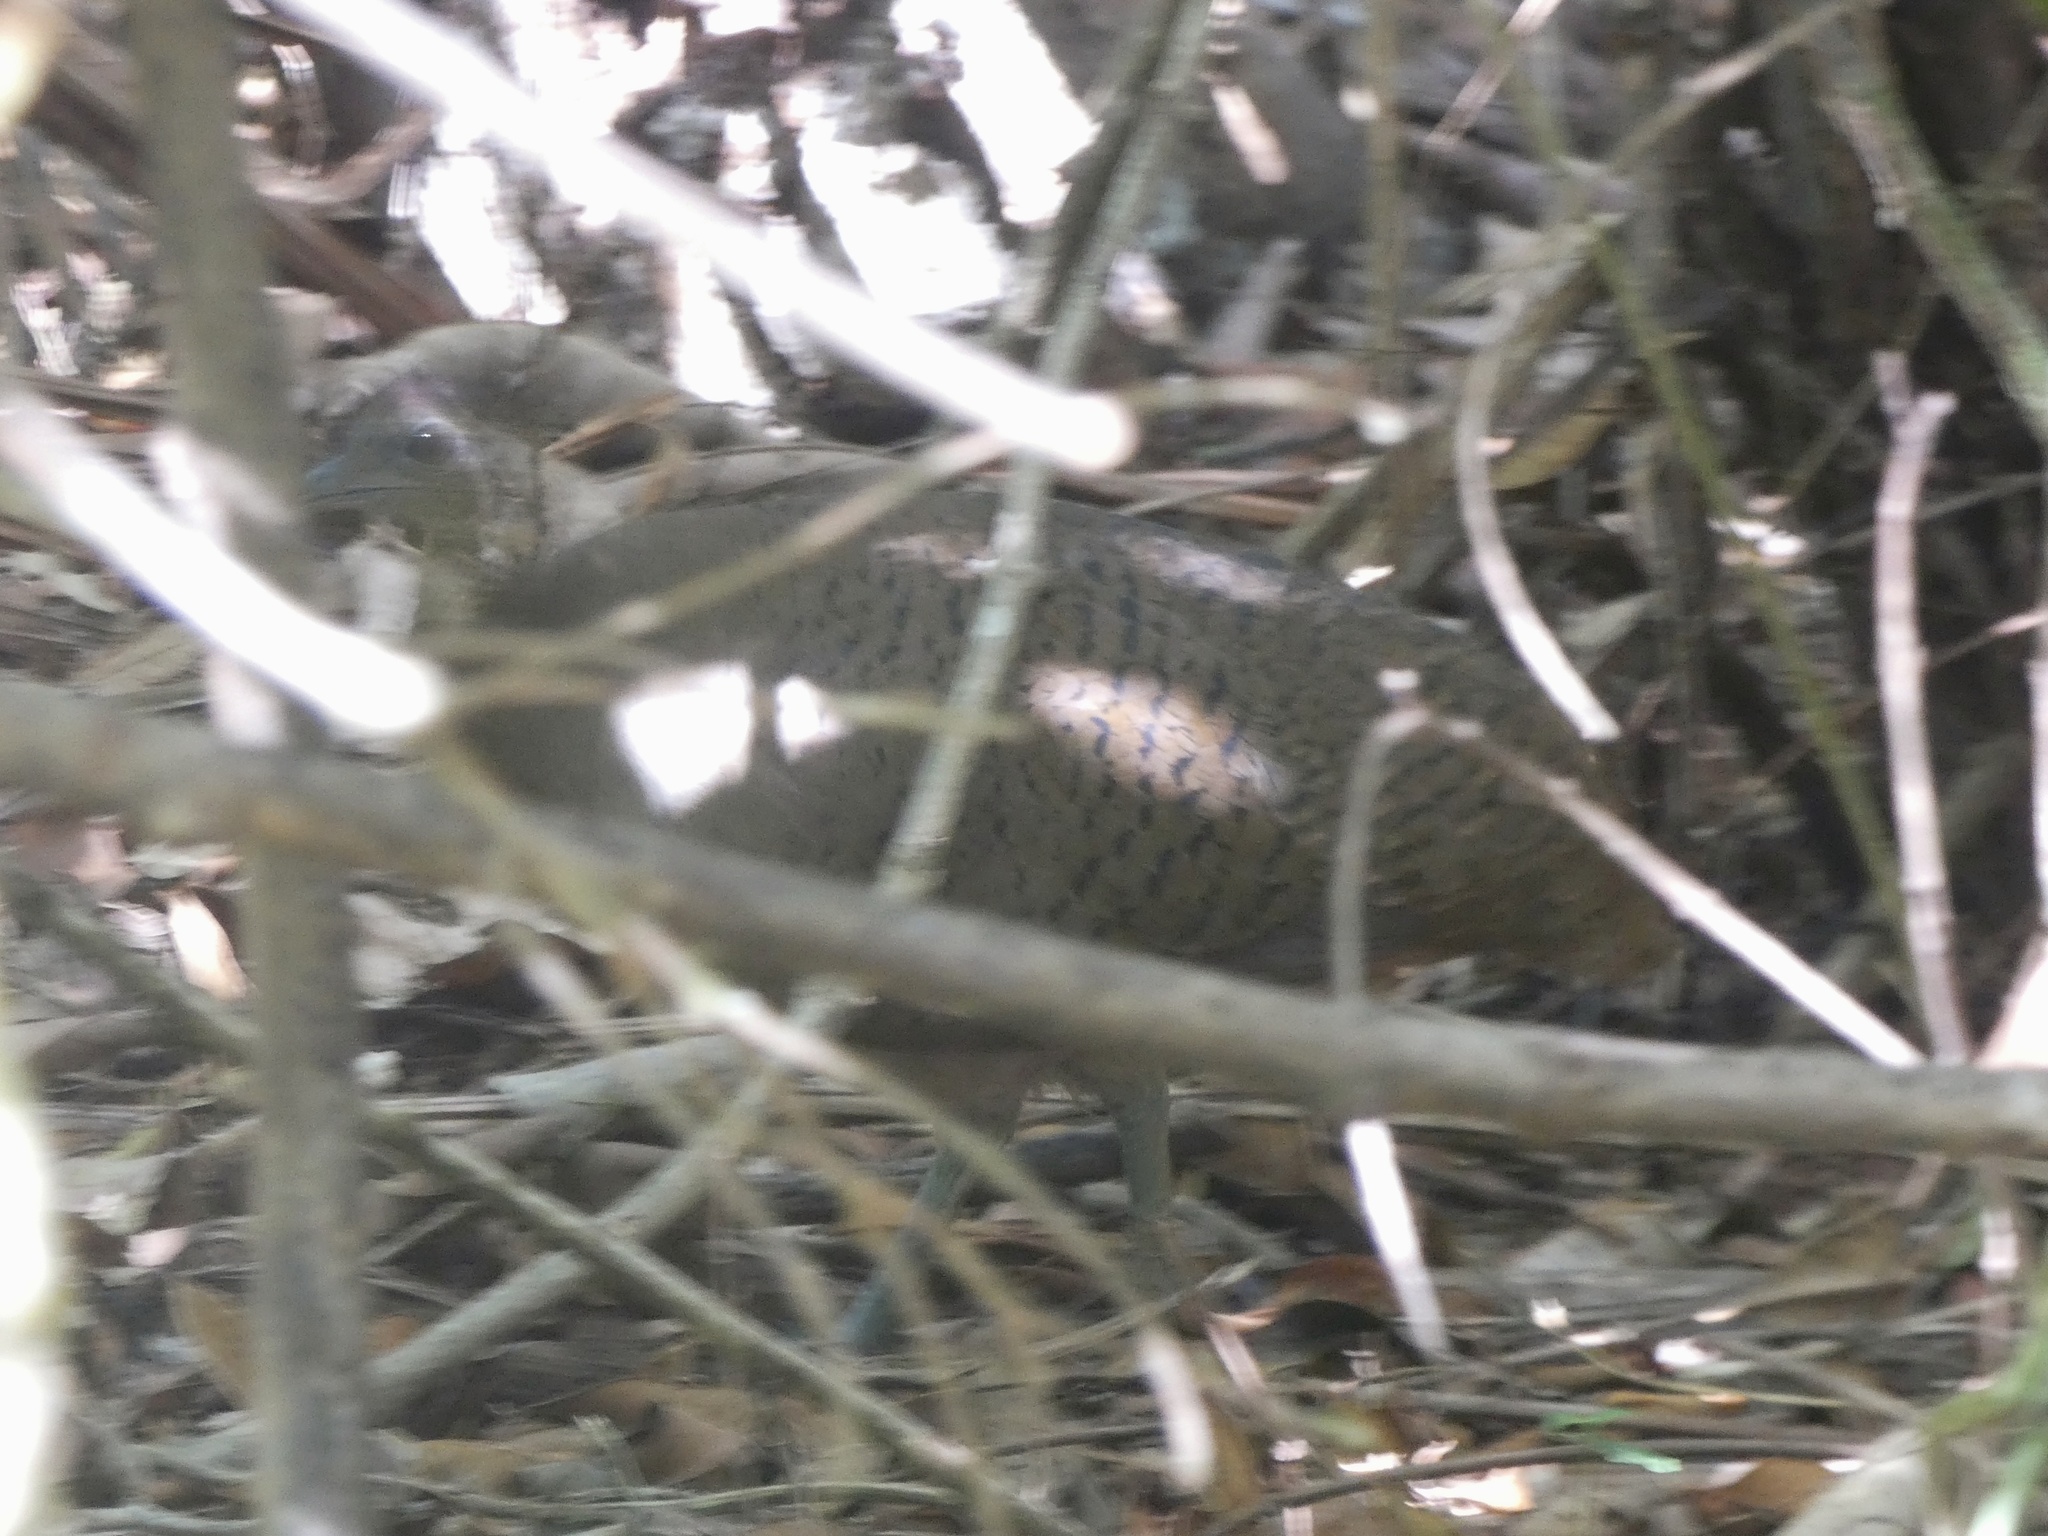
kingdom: Animalia
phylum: Chordata
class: Aves
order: Tinamiformes
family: Tinamidae
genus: Tinamus
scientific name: Tinamus major
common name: Great tinamou
